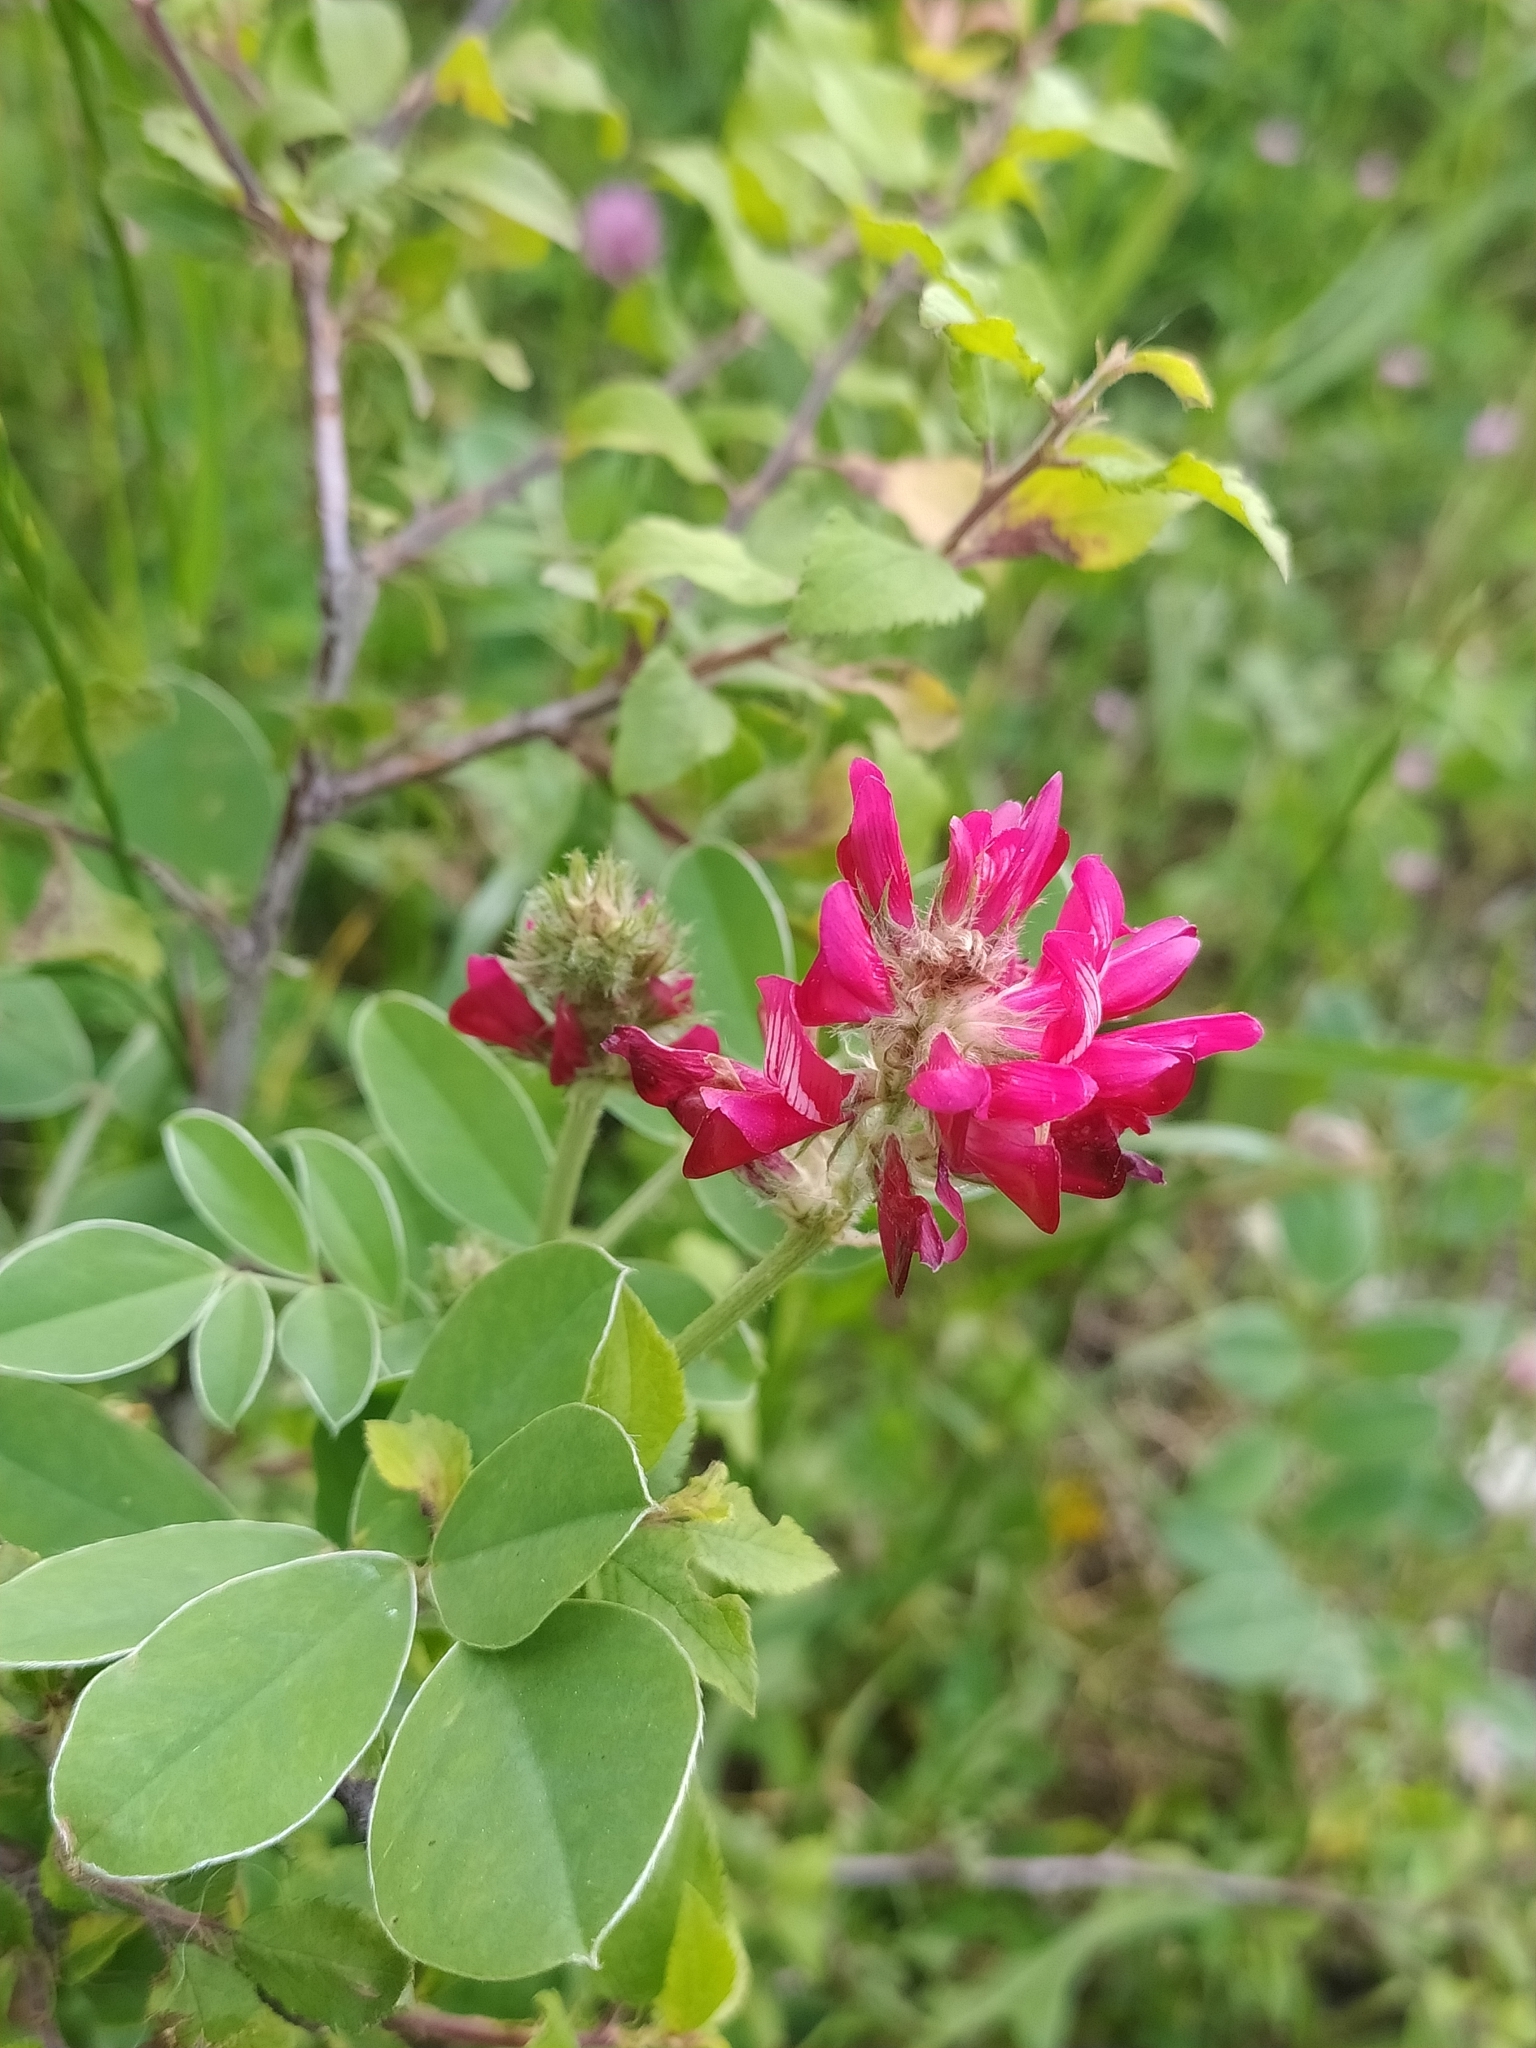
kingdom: Plantae
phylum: Tracheophyta
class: Magnoliopsida
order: Fabales
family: Fabaceae
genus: Sulla
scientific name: Sulla coronaria
